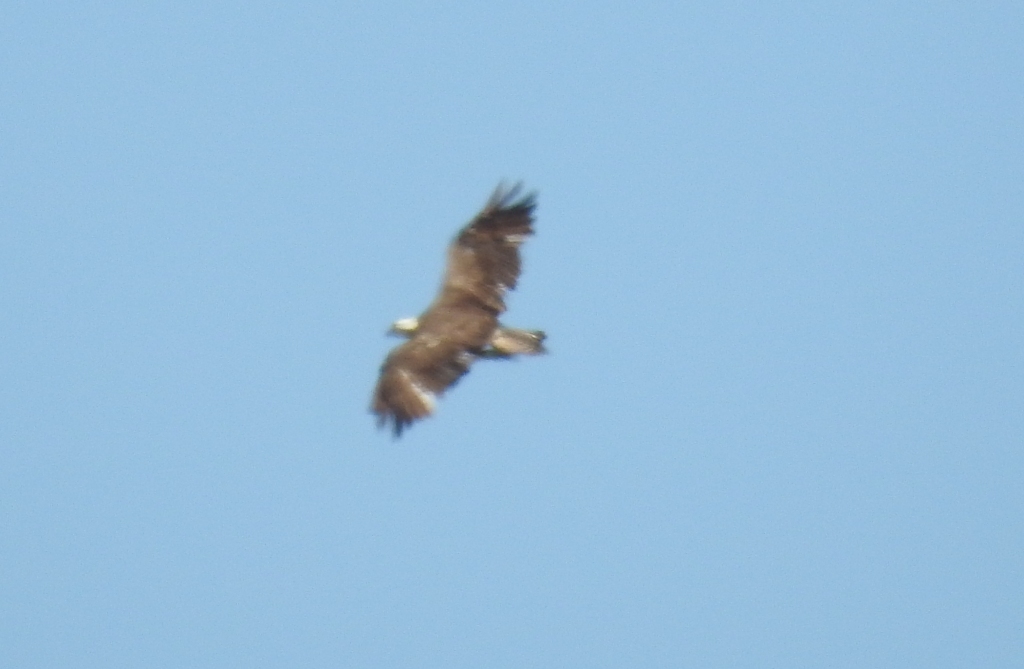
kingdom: Animalia
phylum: Chordata
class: Aves
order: Accipitriformes
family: Pandionidae
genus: Pandion
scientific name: Pandion haliaetus
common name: Osprey
